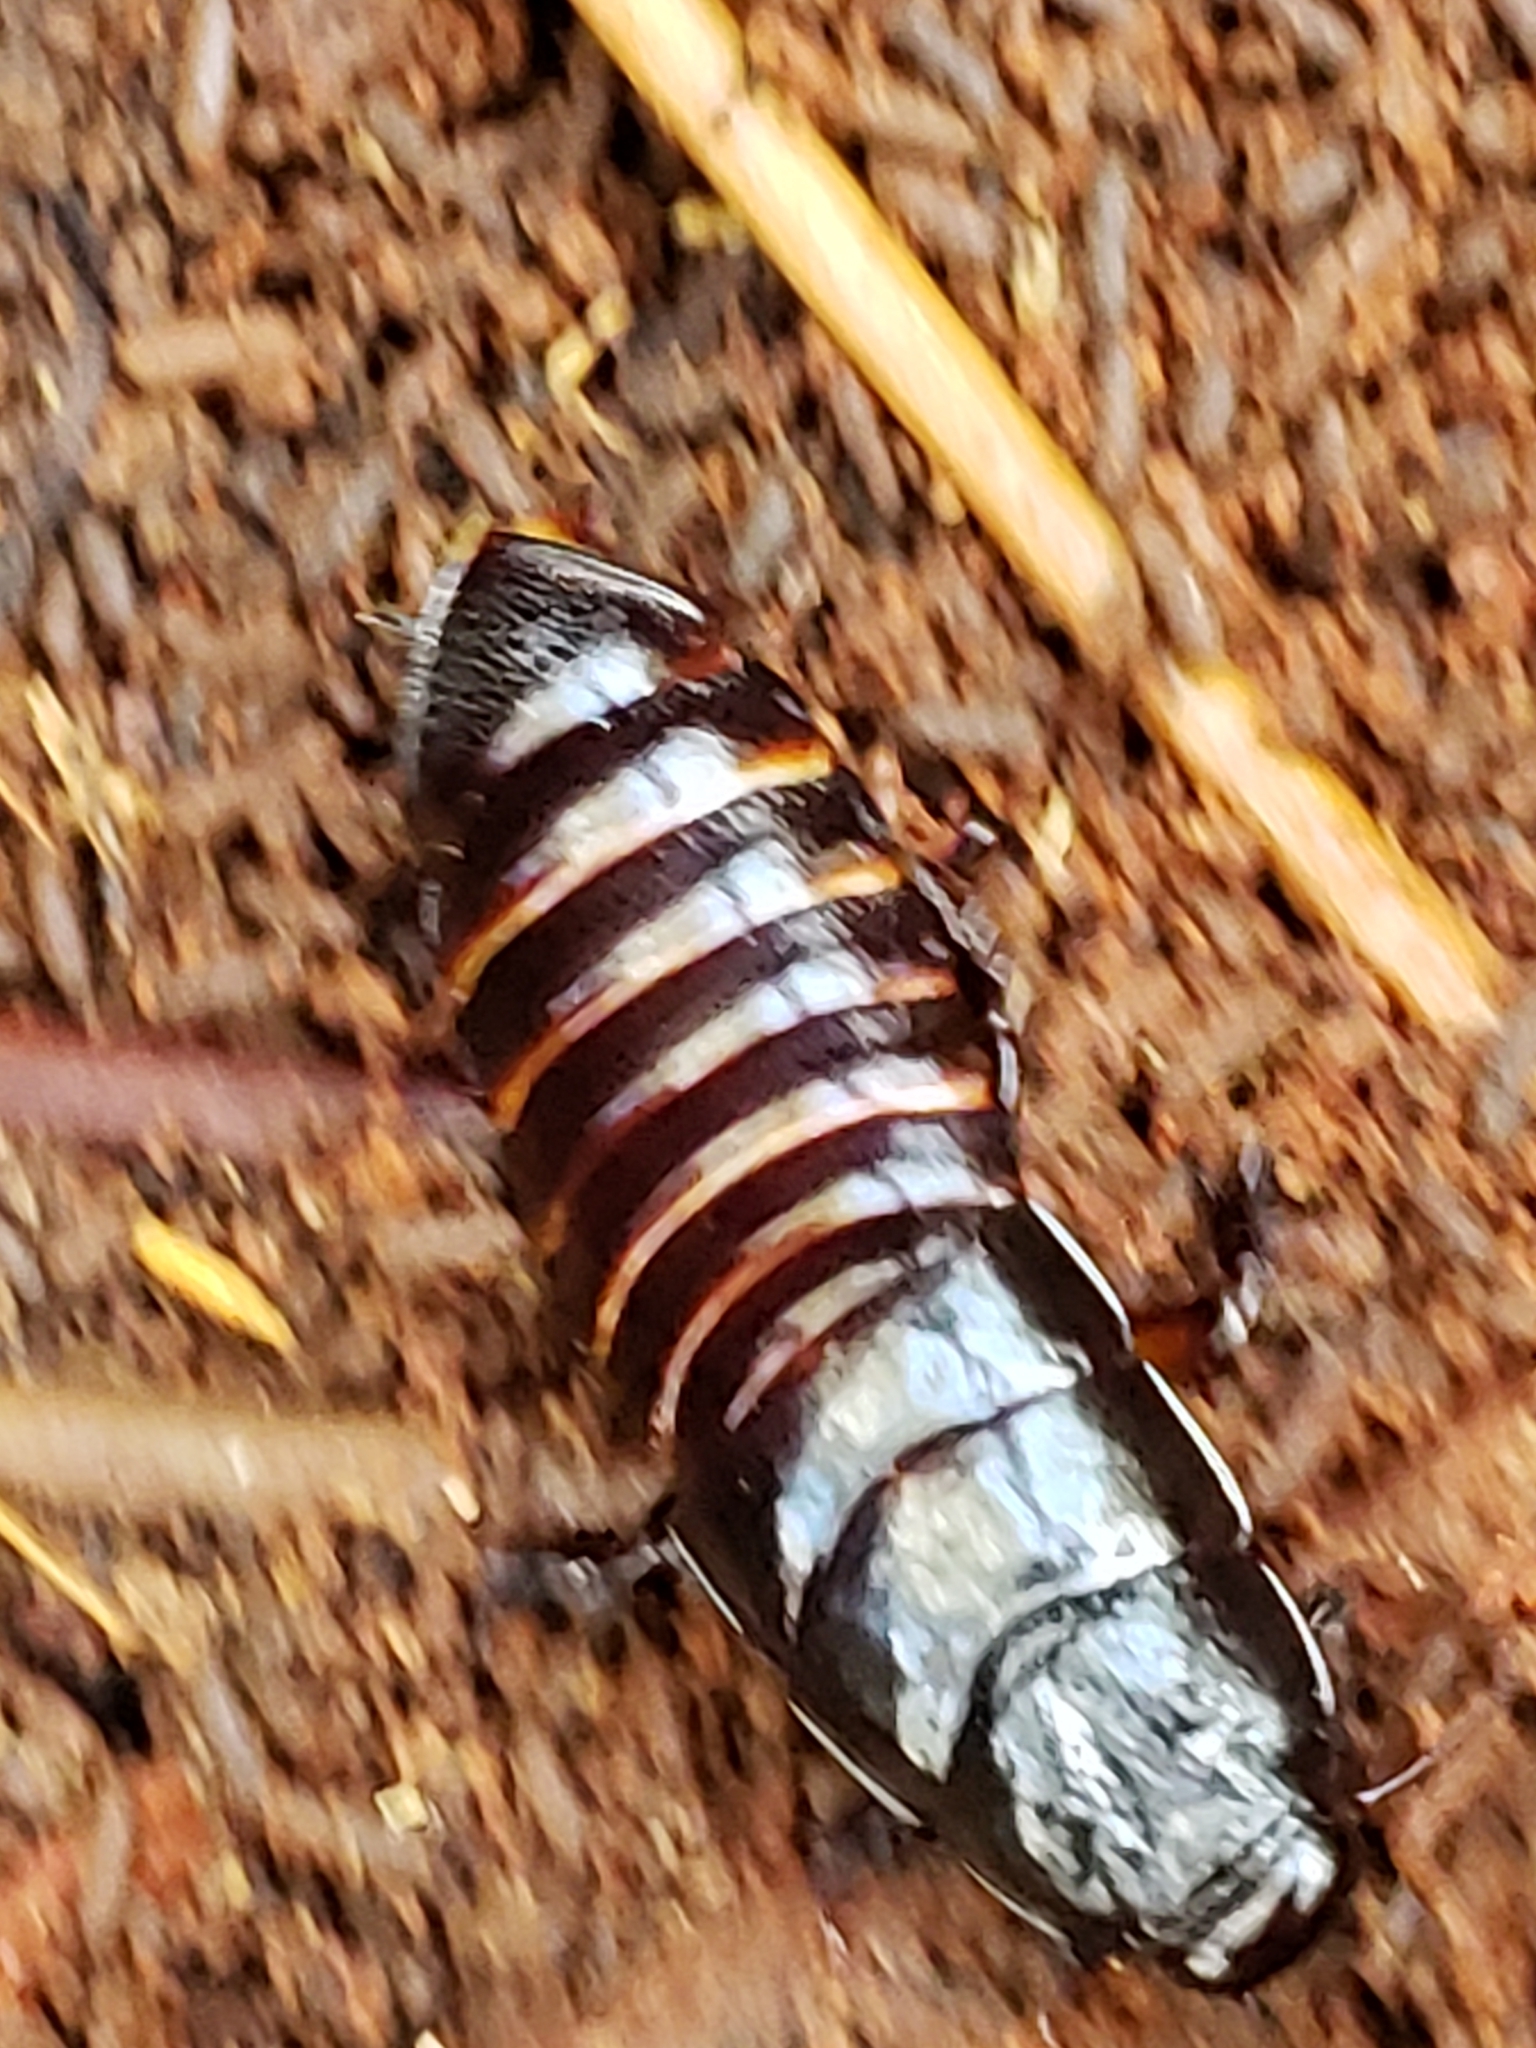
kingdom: Animalia
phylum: Arthropoda
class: Insecta
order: Blattodea
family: Cryptocercidae
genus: Cryptocercus
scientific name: Cryptocercus punctulatus
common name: Brown wingless cockroach
